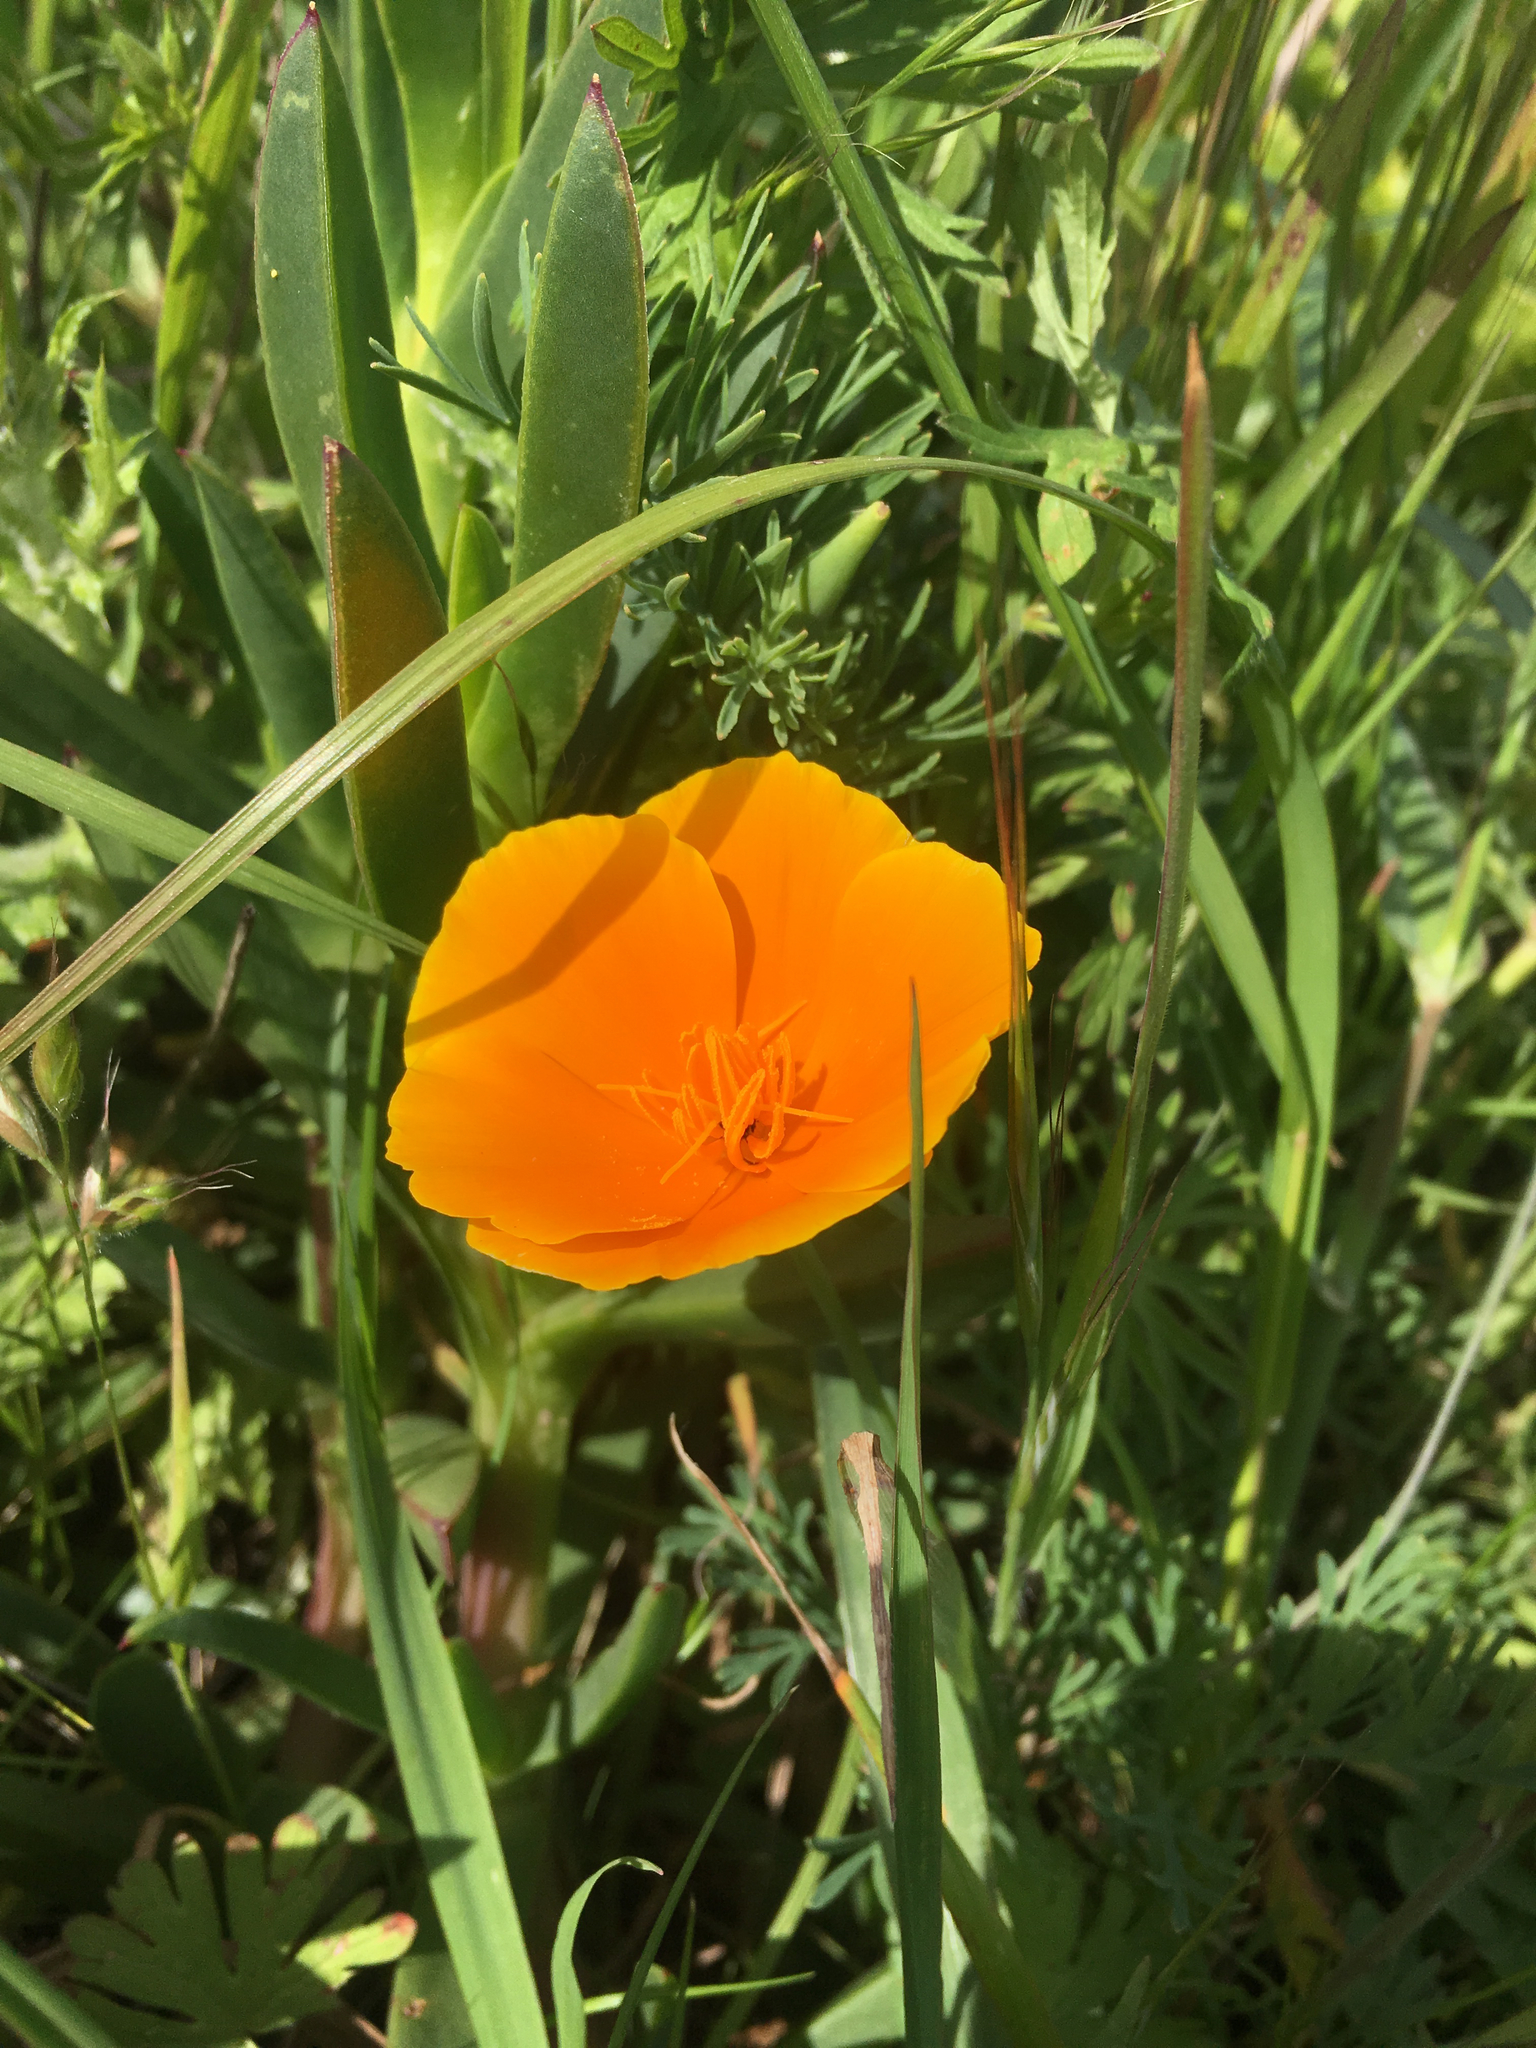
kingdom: Plantae
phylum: Tracheophyta
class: Magnoliopsida
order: Ranunculales
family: Papaveraceae
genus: Eschscholzia
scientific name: Eschscholzia californica
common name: California poppy
